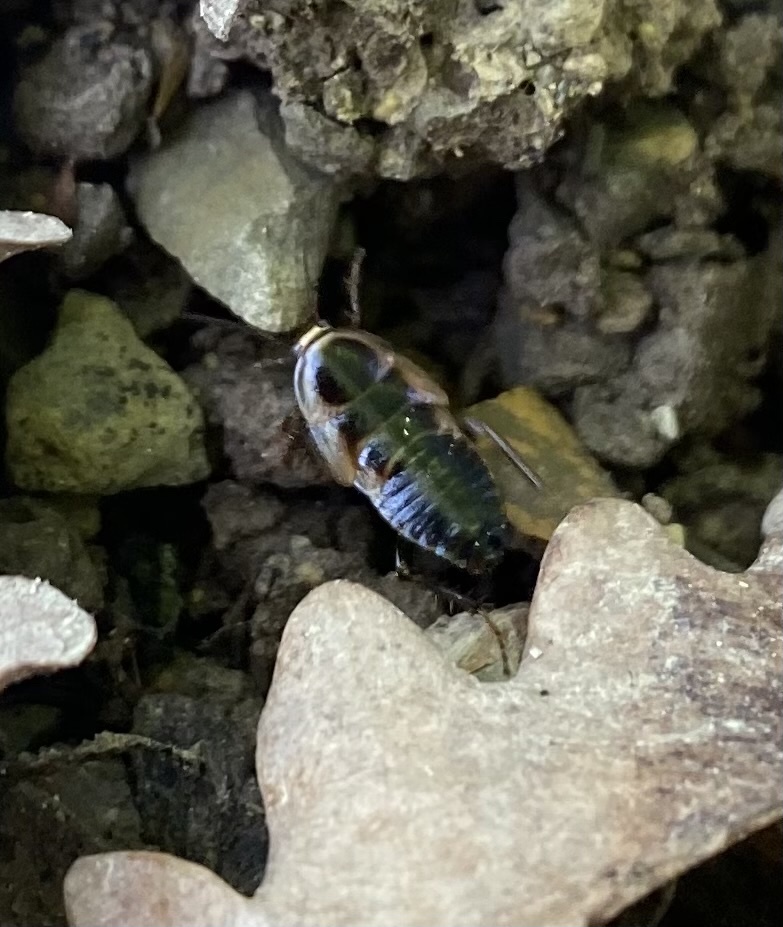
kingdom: Animalia
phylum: Arthropoda
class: Insecta
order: Blattodea
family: Ectobiidae
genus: Phyllodromica
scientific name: Phyllodromica polita
